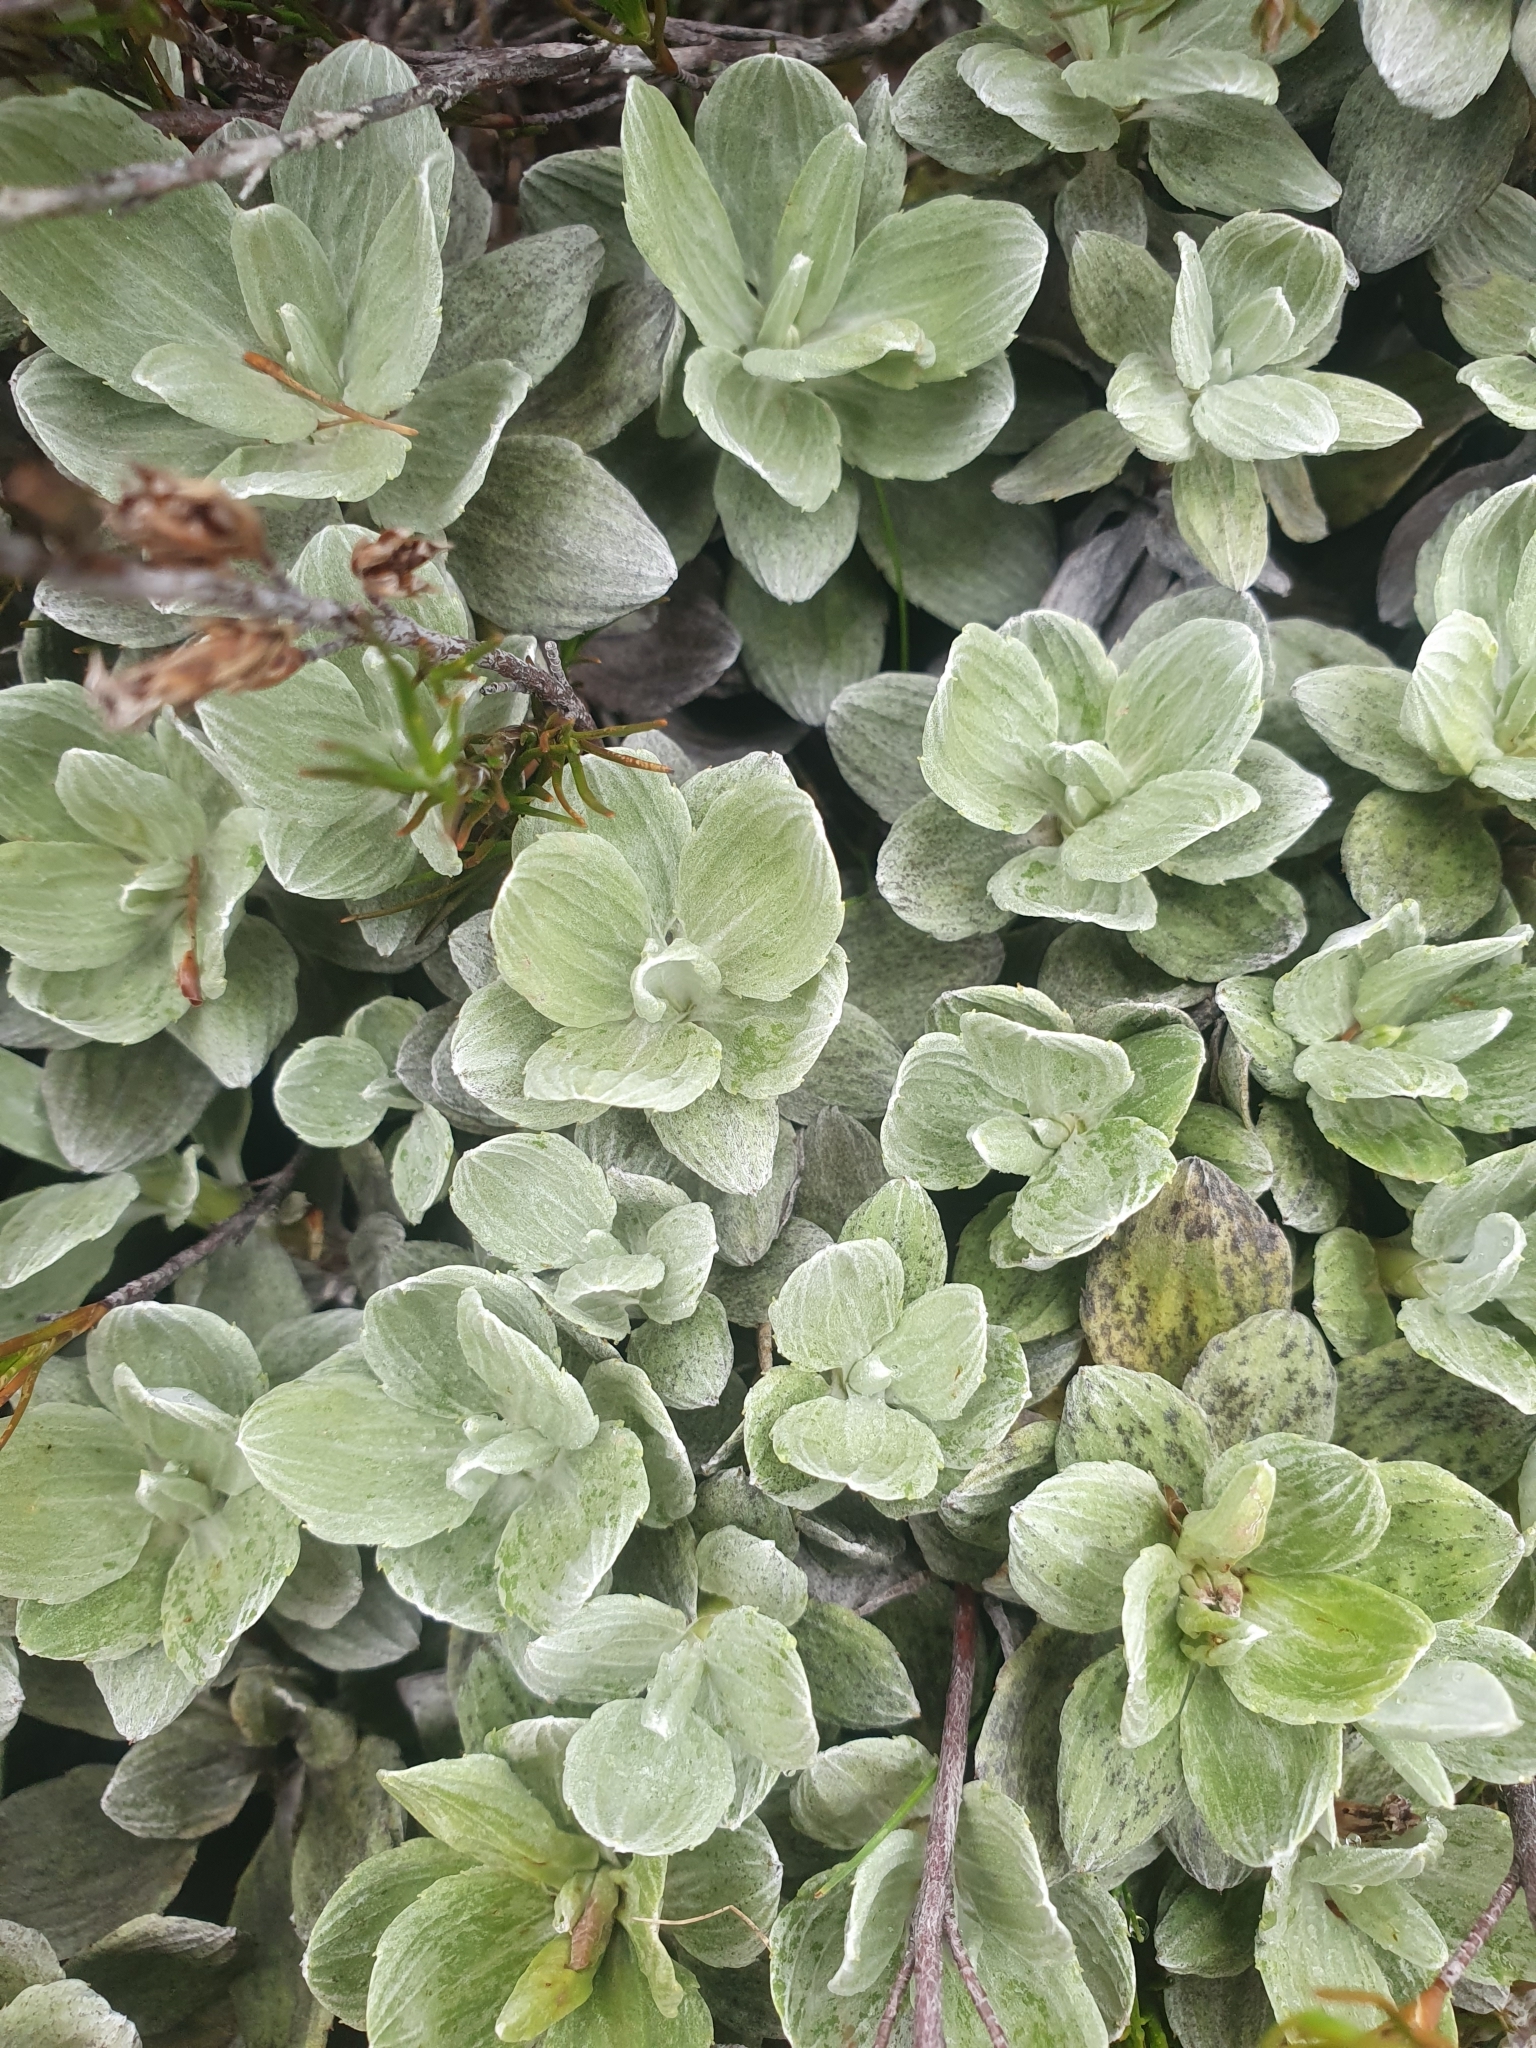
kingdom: Plantae
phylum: Tracheophyta
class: Magnoliopsida
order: Asterales
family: Asteraceae
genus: Celmisia
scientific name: Celmisia discolor
